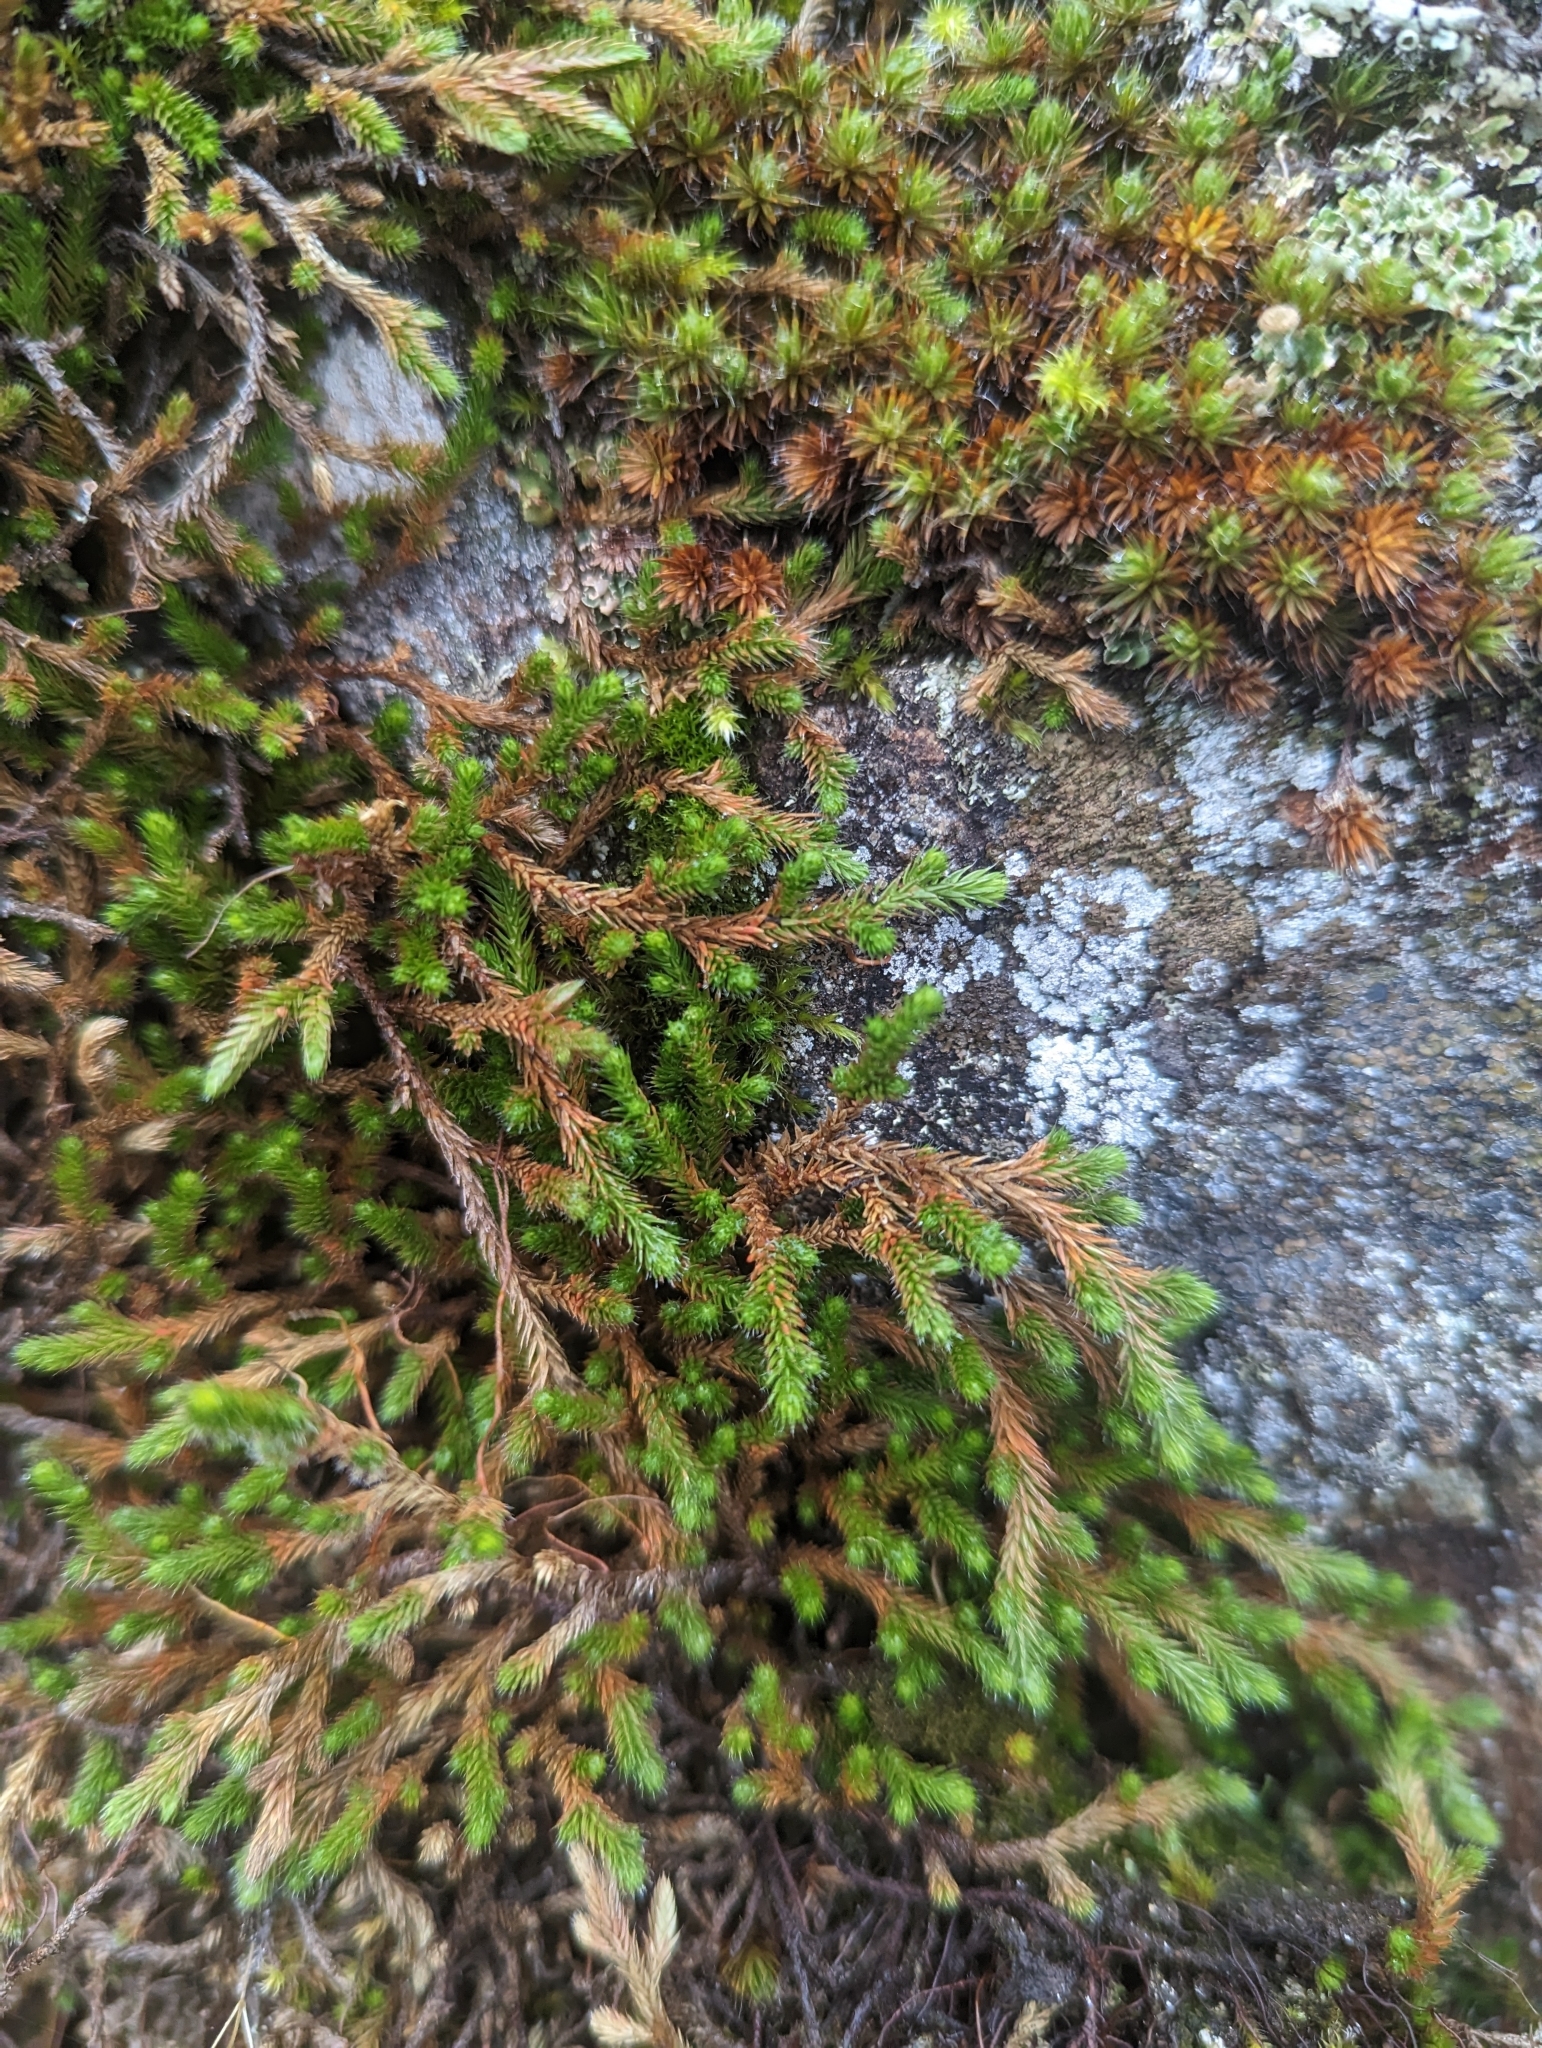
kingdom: Plantae
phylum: Tracheophyta
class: Lycopodiopsida
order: Selaginellales
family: Selaginellaceae
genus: Selaginella
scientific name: Selaginella wallacei
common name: Wallace's selaginella
